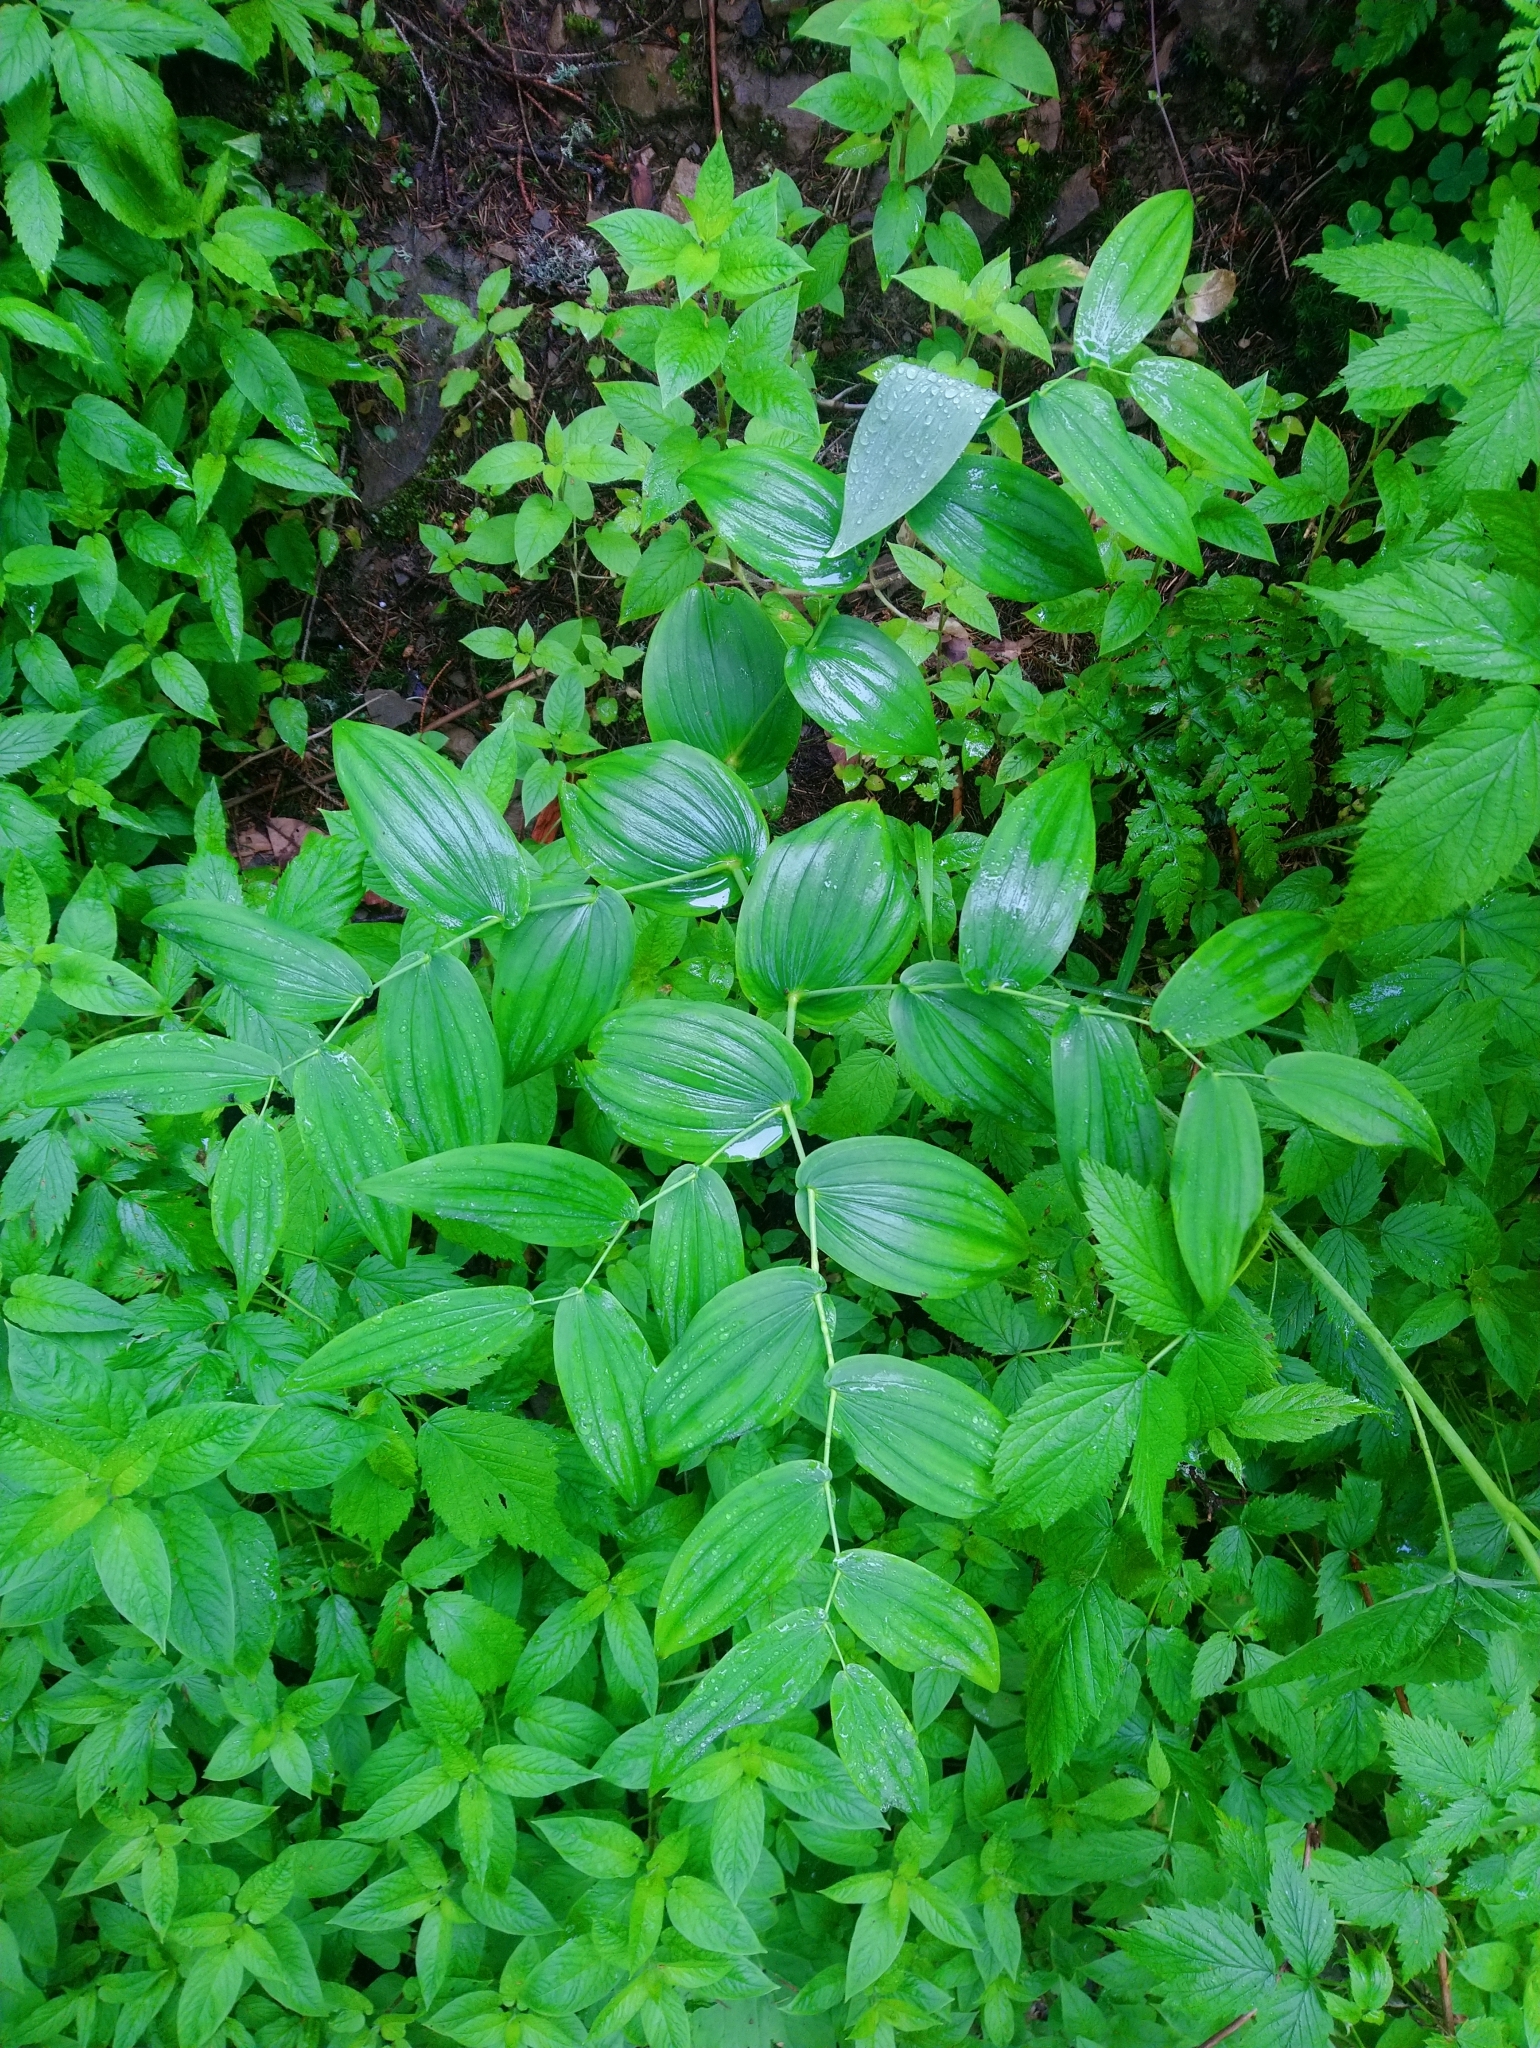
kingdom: Plantae
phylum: Tracheophyta
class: Liliopsida
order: Liliales
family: Liliaceae
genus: Streptopus
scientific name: Streptopus amplexifolius
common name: Clasp twisted stalk
